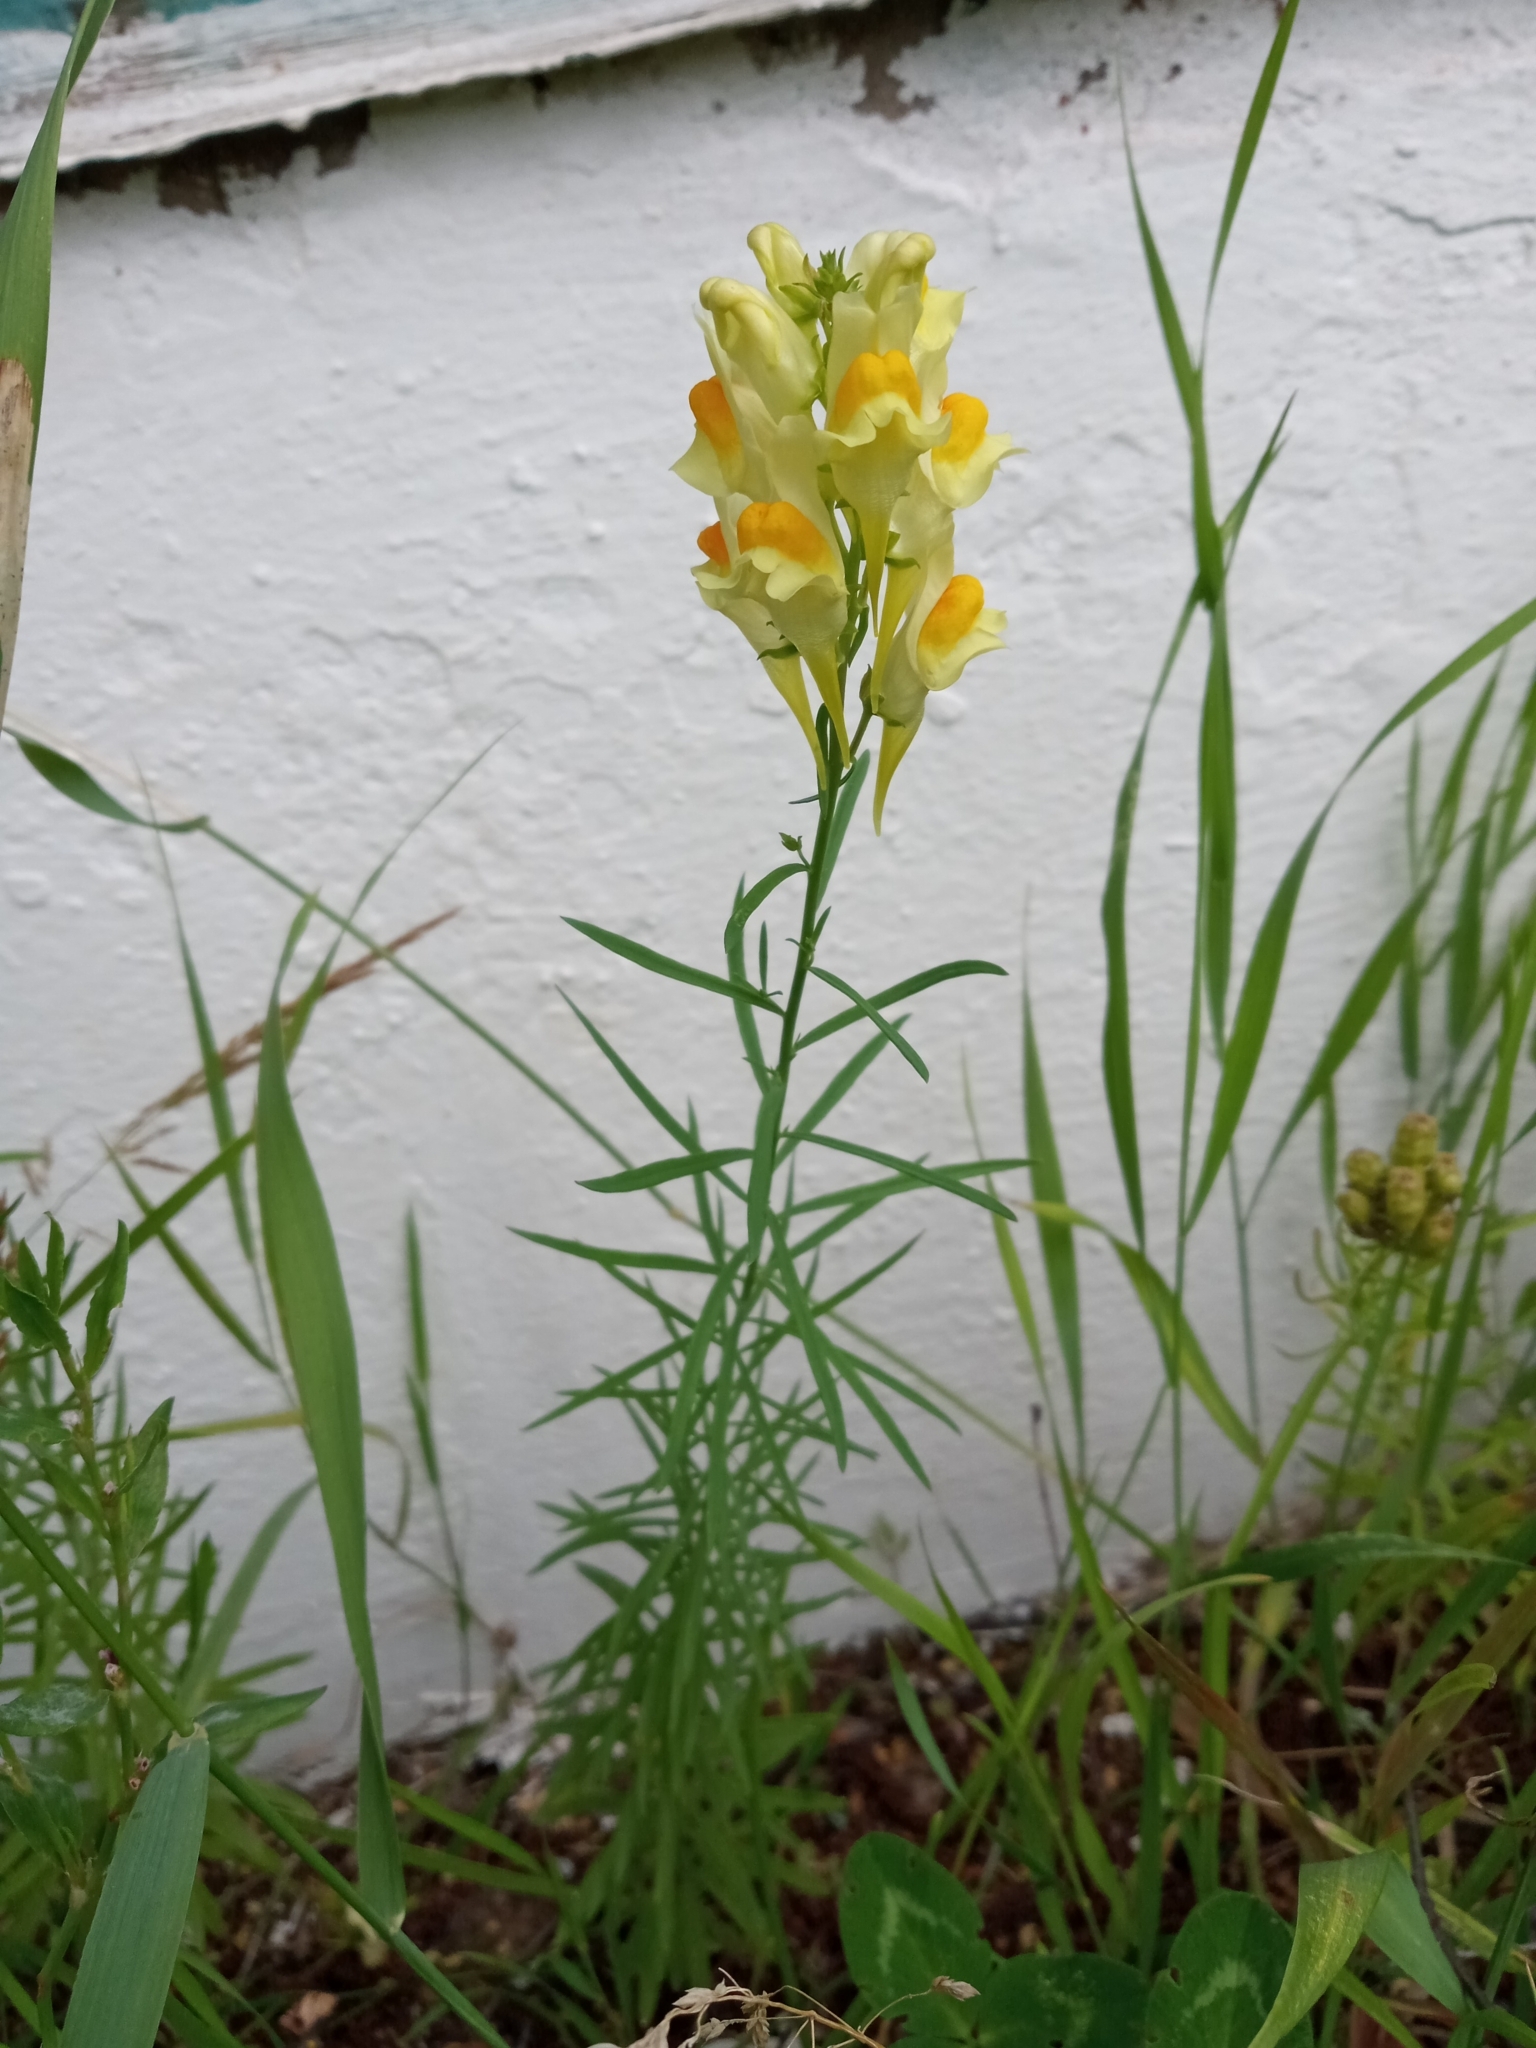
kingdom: Plantae
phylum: Tracheophyta
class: Magnoliopsida
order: Lamiales
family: Plantaginaceae
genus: Linaria
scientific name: Linaria vulgaris
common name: Butter and eggs
